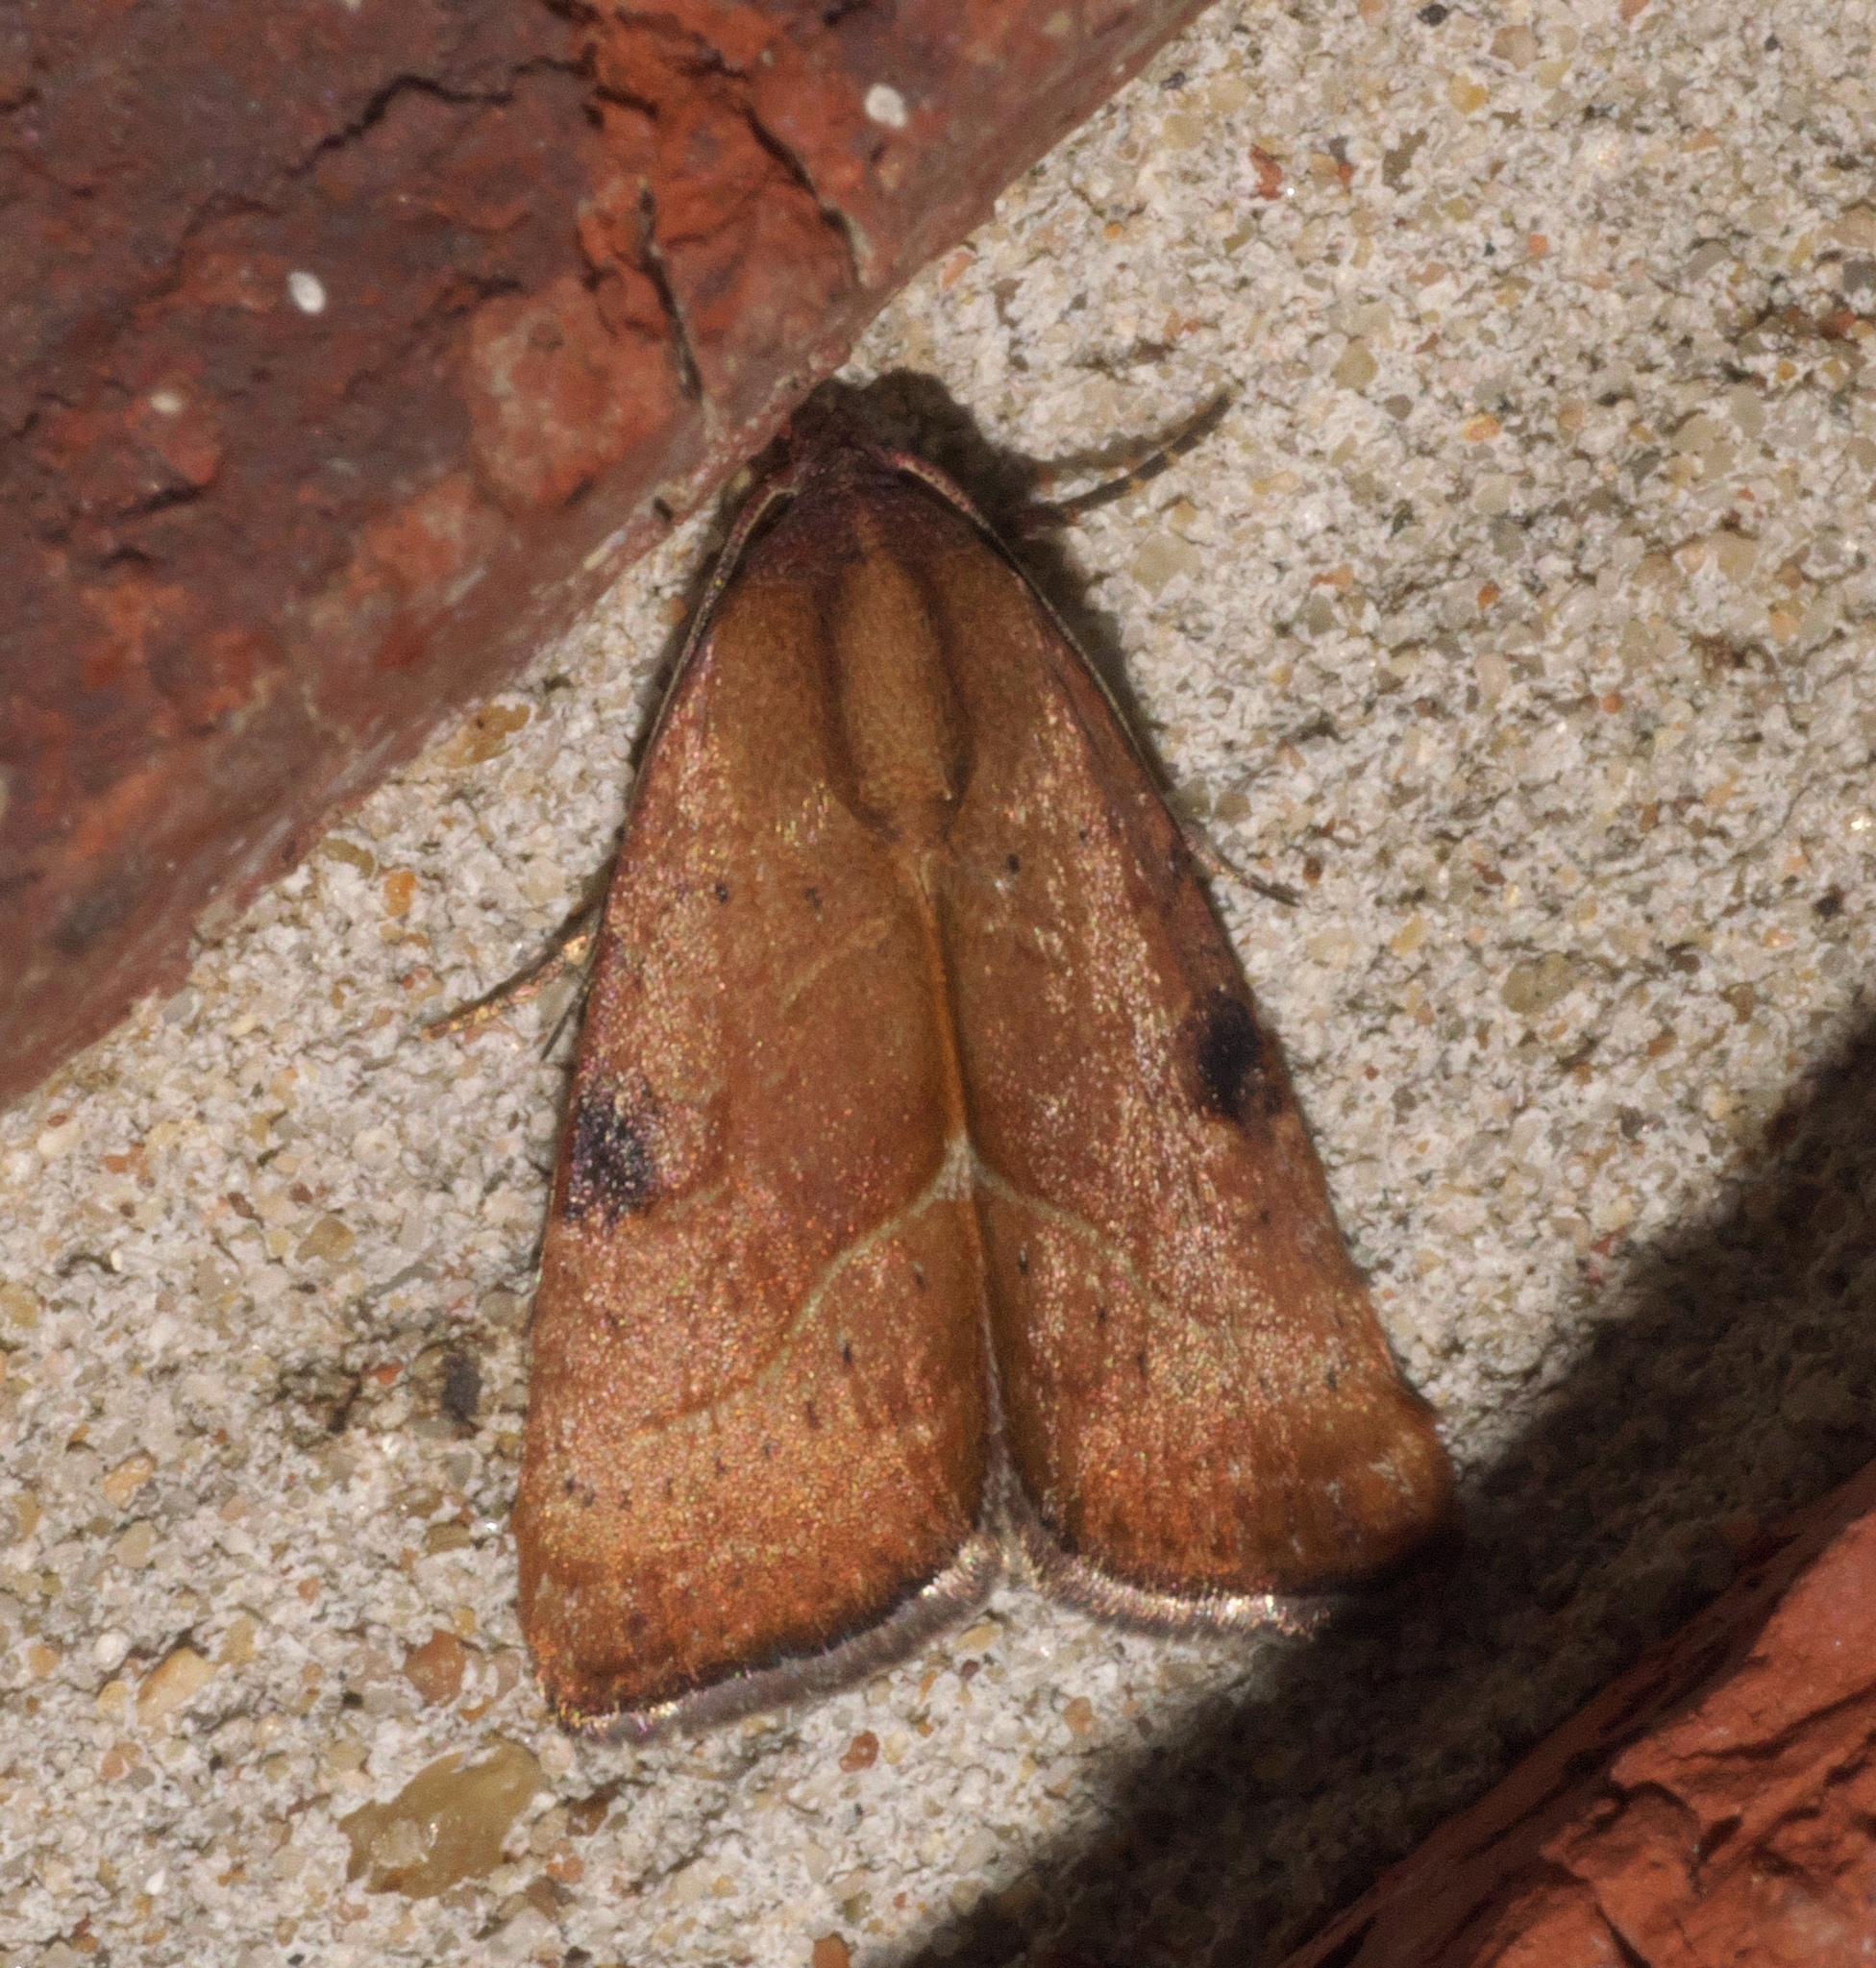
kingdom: Animalia
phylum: Arthropoda
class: Insecta
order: Lepidoptera
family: Noctuidae
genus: Galgula
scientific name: Galgula partita
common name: Wedgeling
